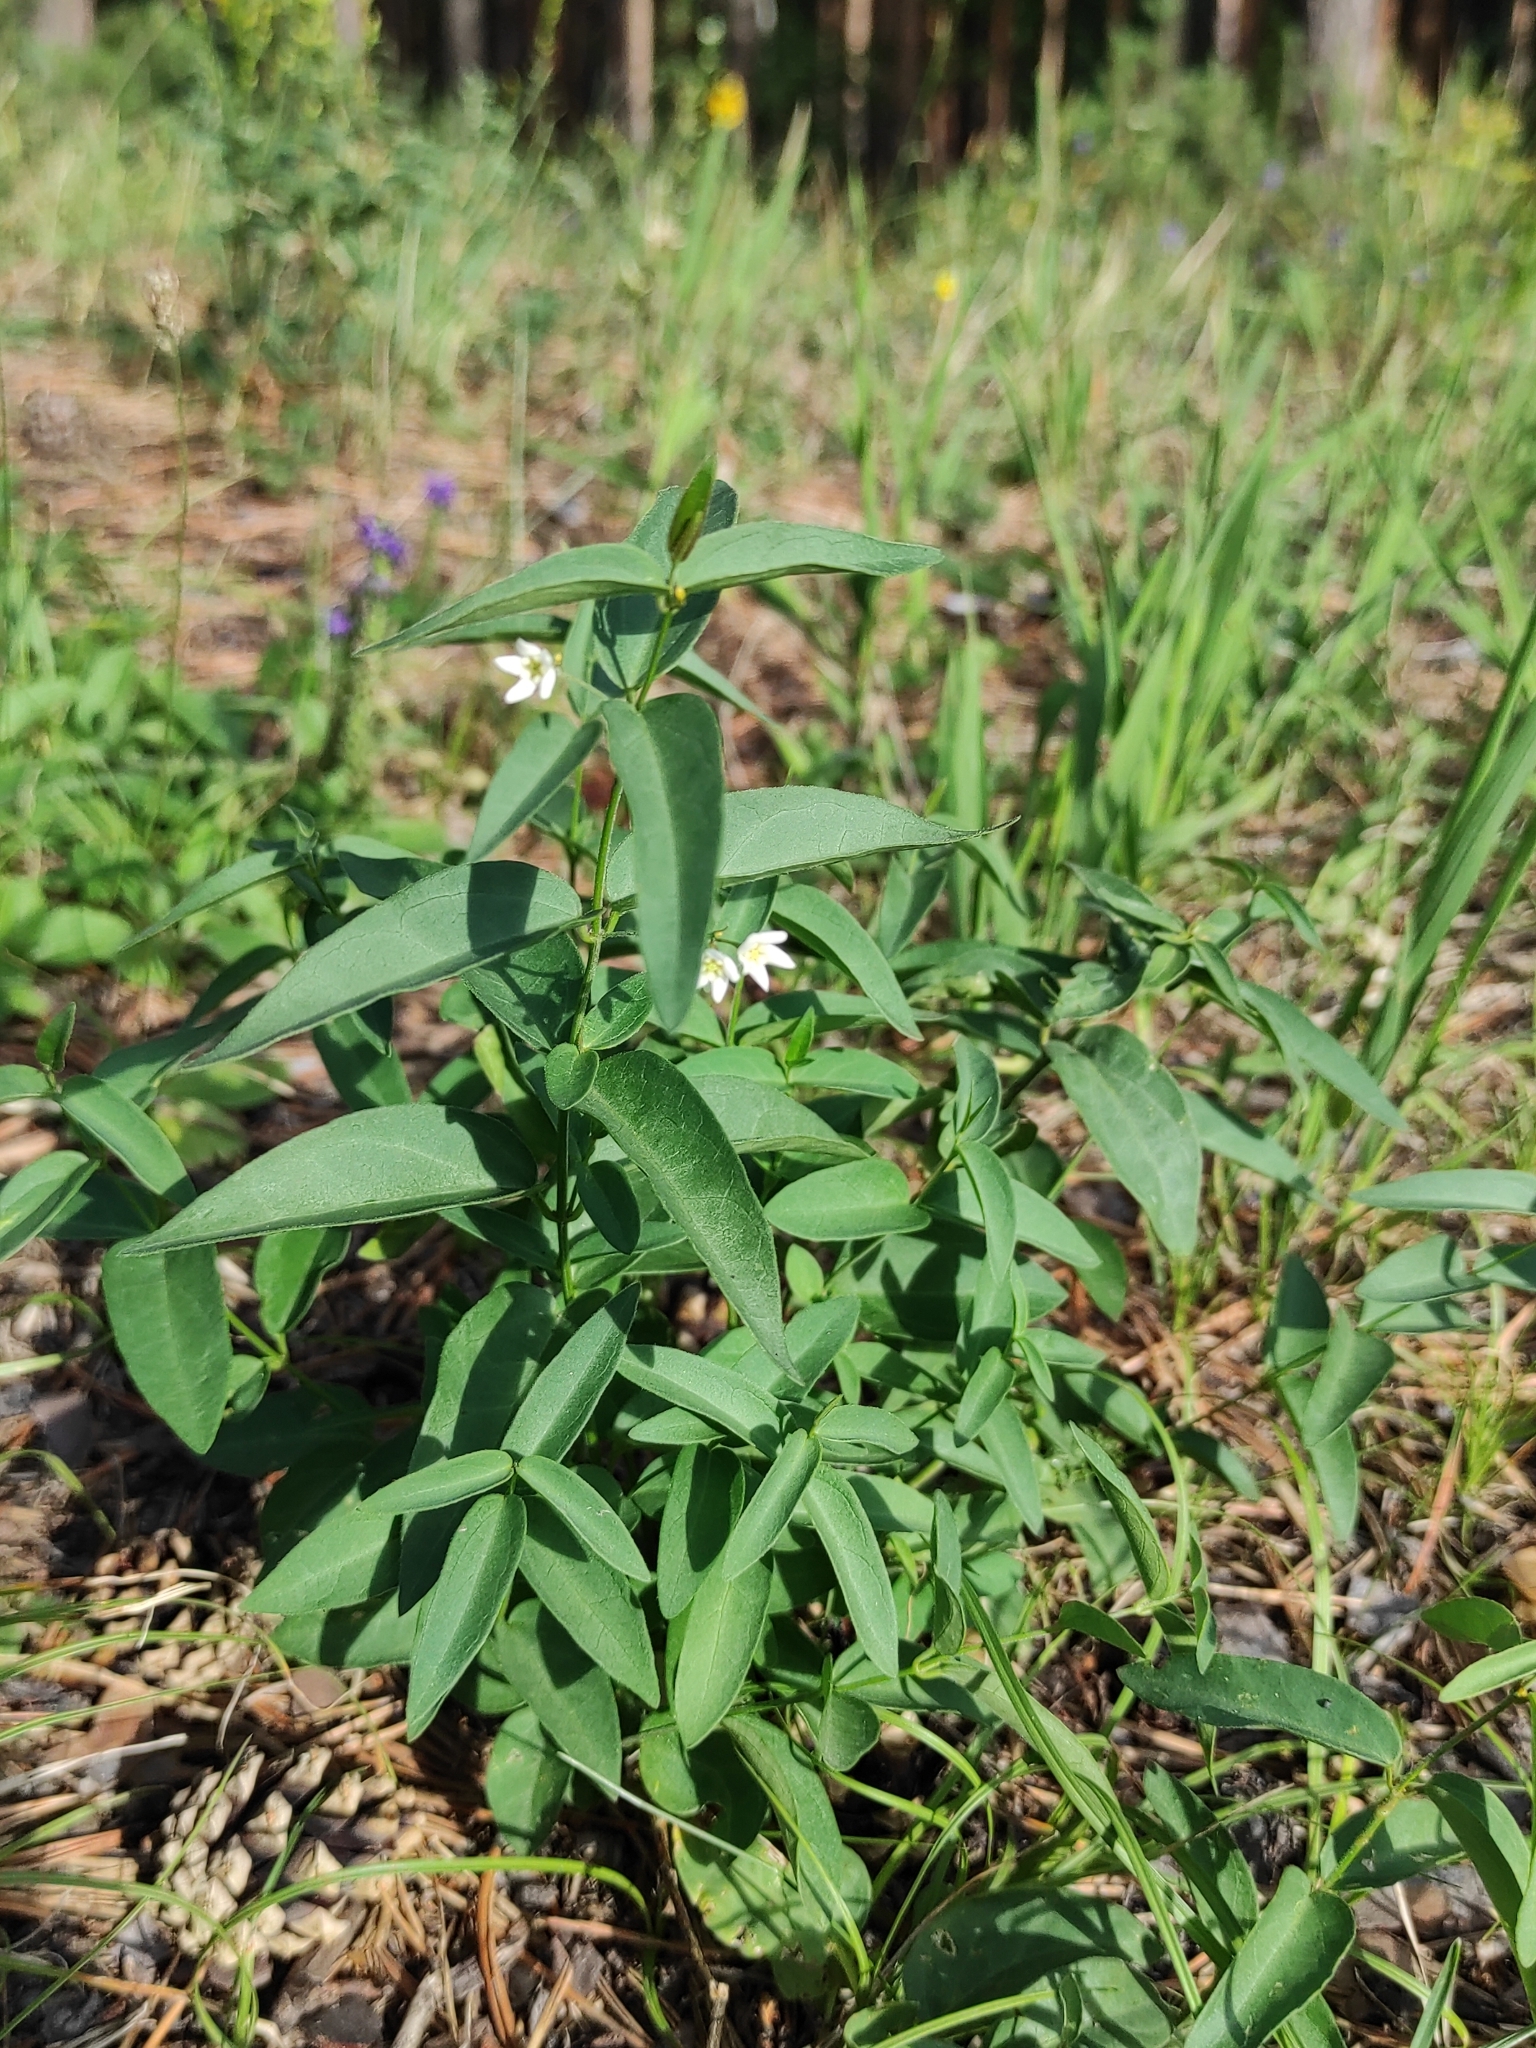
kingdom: Plantae
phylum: Tracheophyta
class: Magnoliopsida
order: Gentianales
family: Apocynaceae
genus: Vincetoxicum
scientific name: Vincetoxicum hirundinaria
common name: White swallowwort
